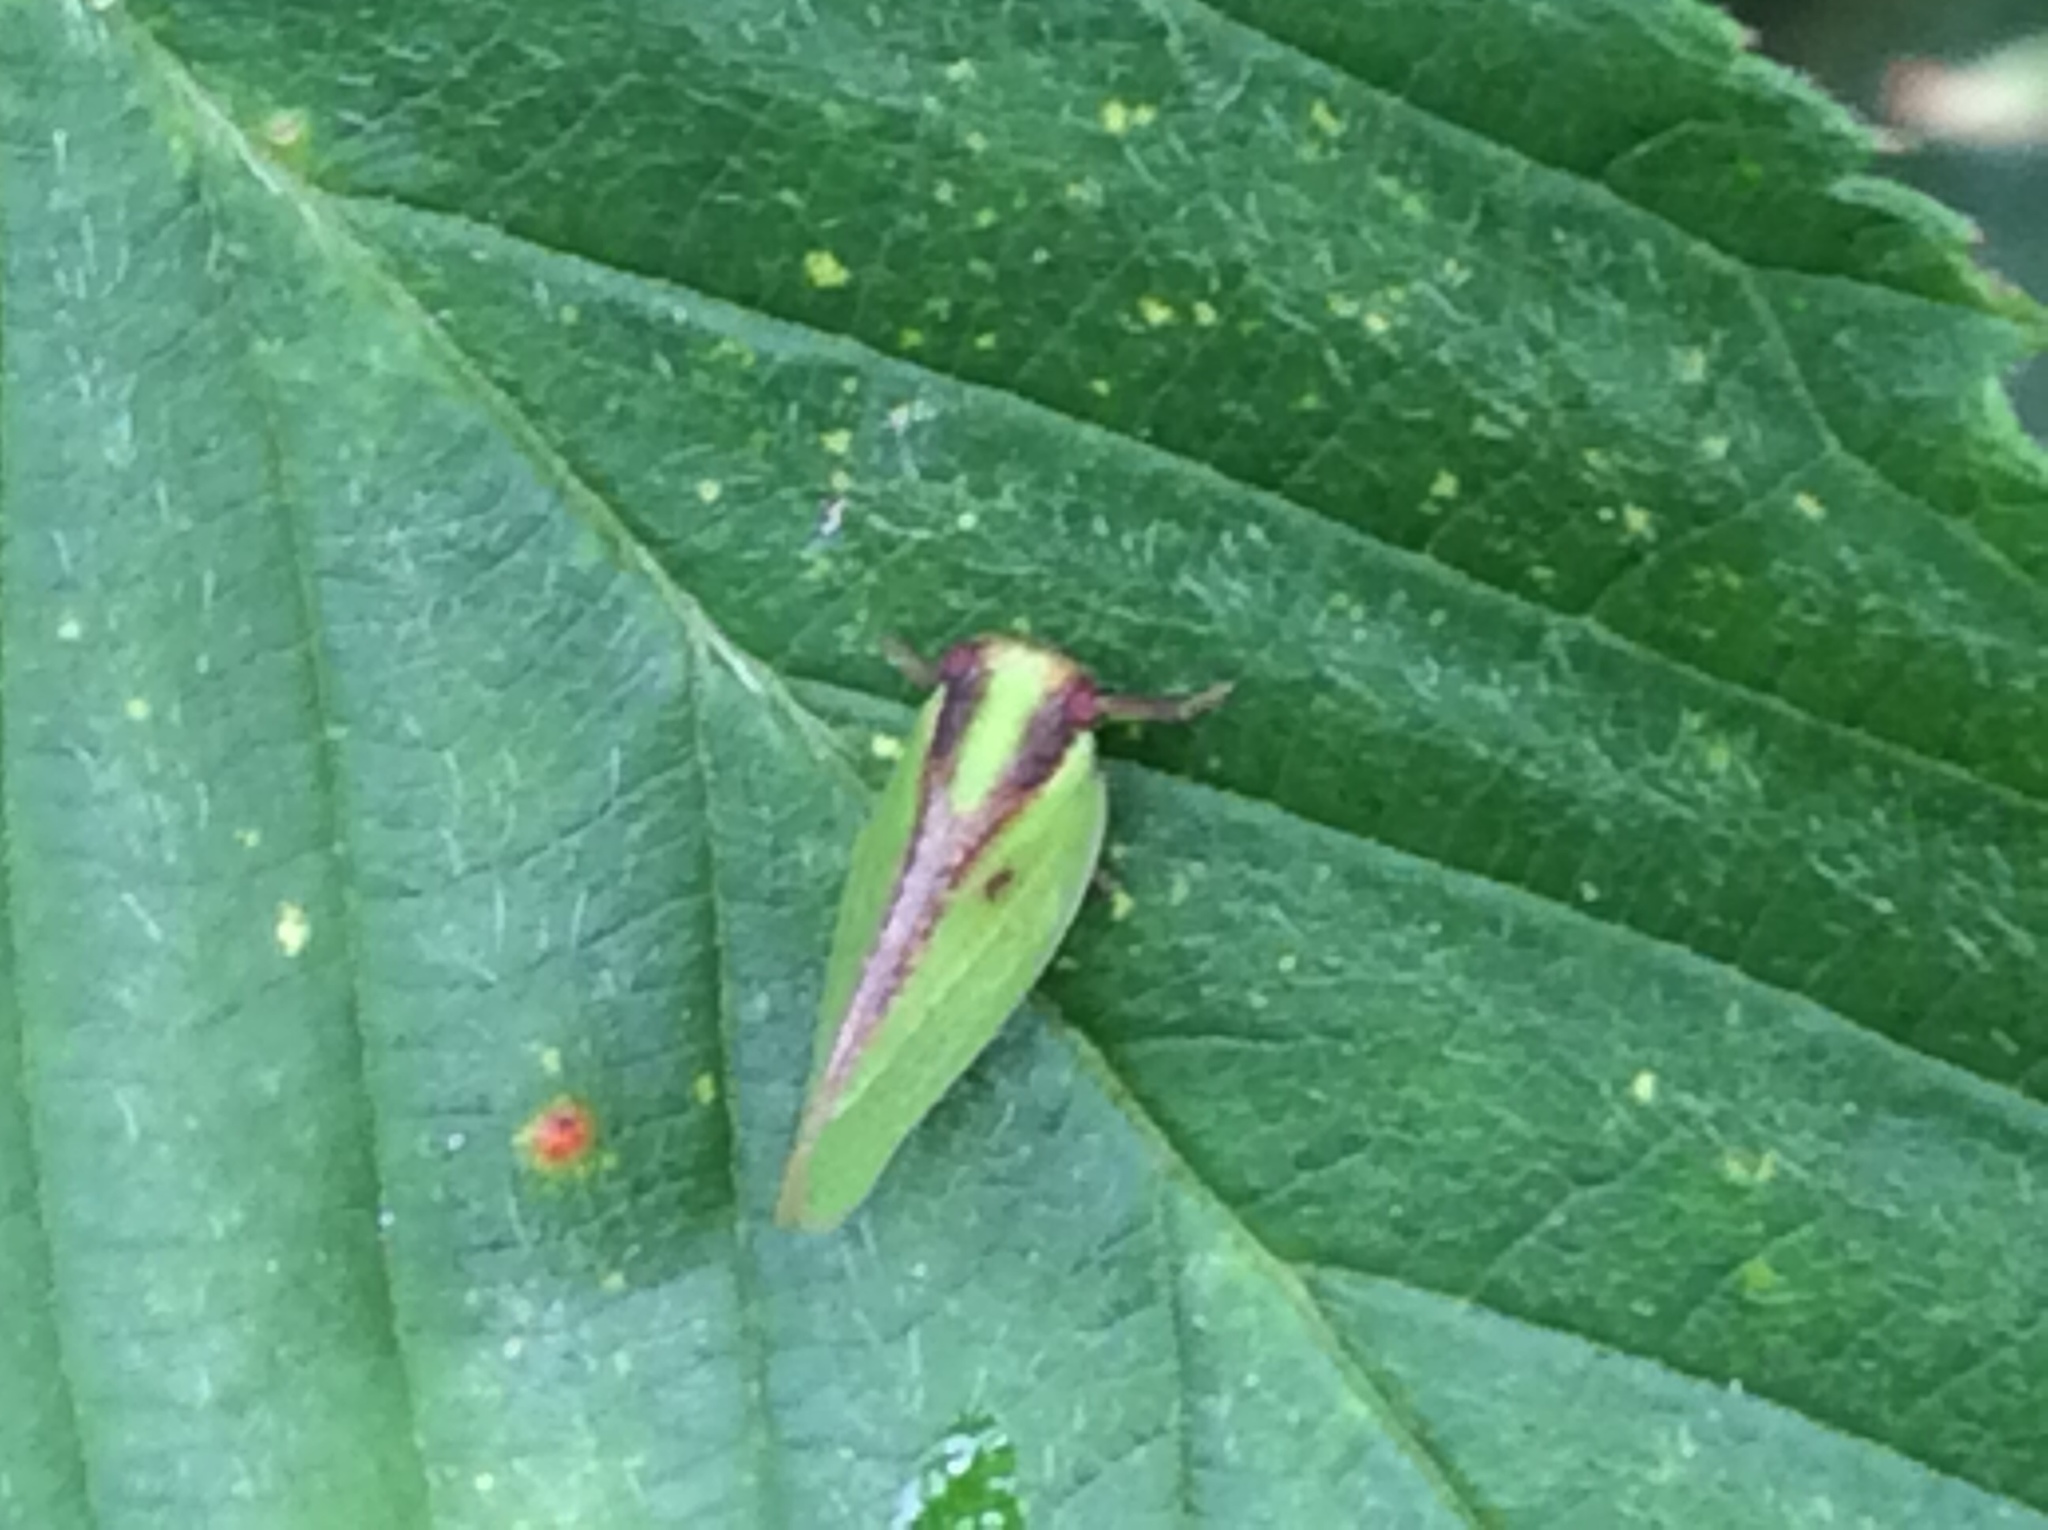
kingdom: Animalia
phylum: Arthropoda
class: Insecta
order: Hemiptera
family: Acanaloniidae
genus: Acanalonia
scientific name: Acanalonia bivittata
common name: Two-striped planthopper
